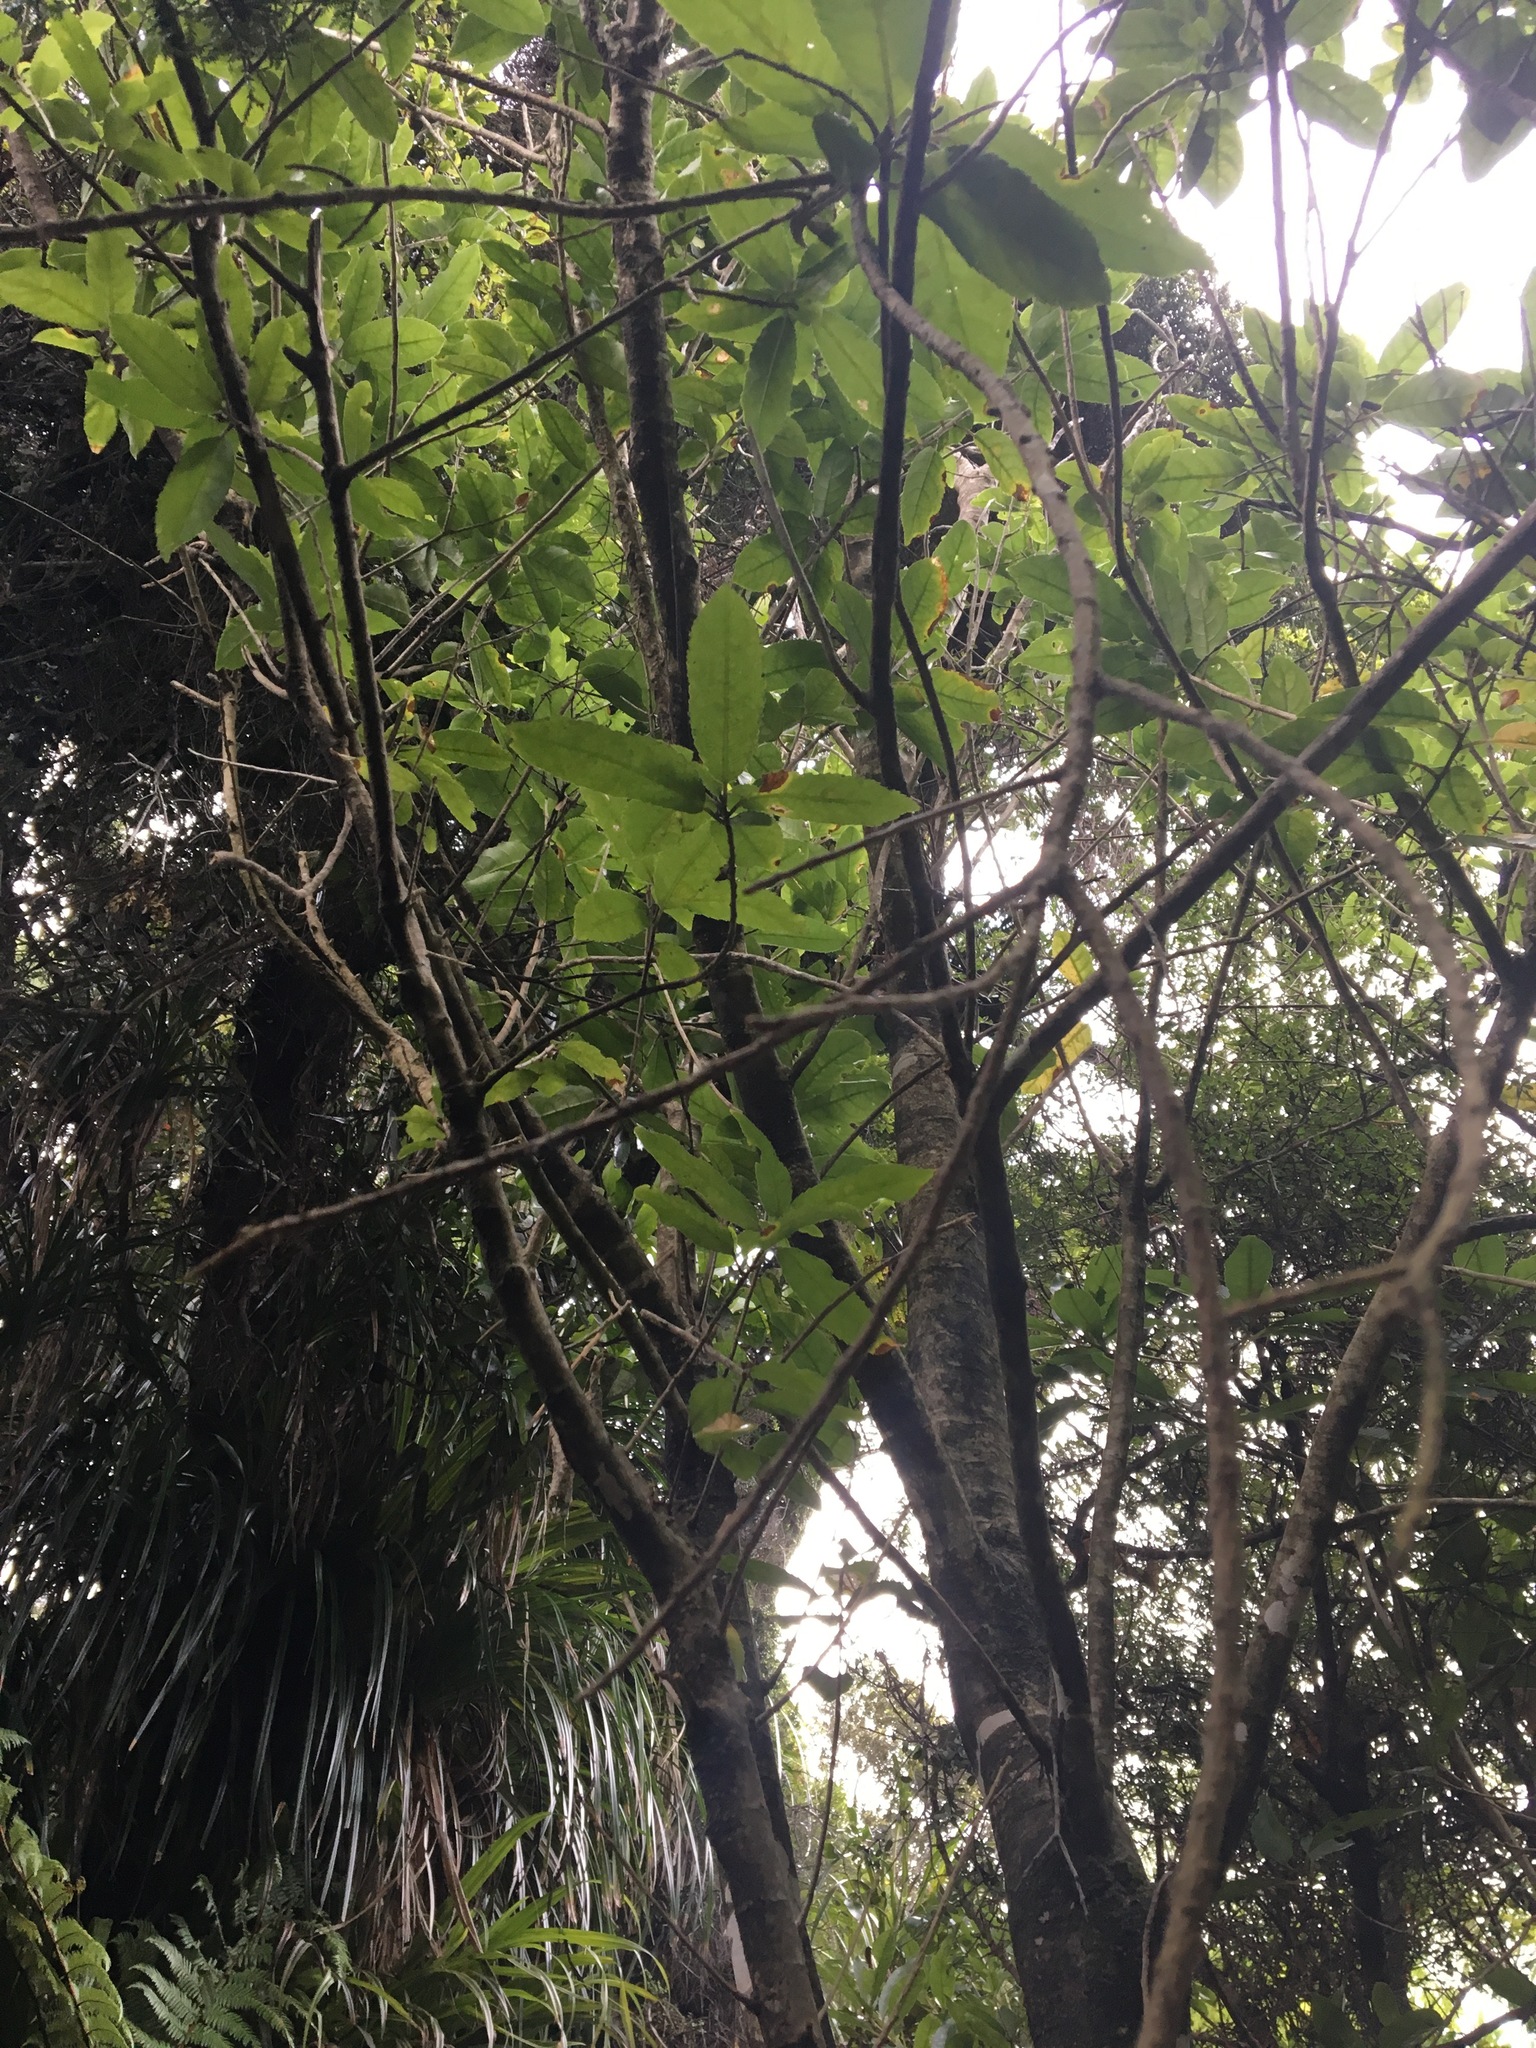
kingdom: Plantae
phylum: Tracheophyta
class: Magnoliopsida
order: Malpighiales
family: Violaceae
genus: Melicytus
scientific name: Melicytus ramiflorus
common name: Mahoe
